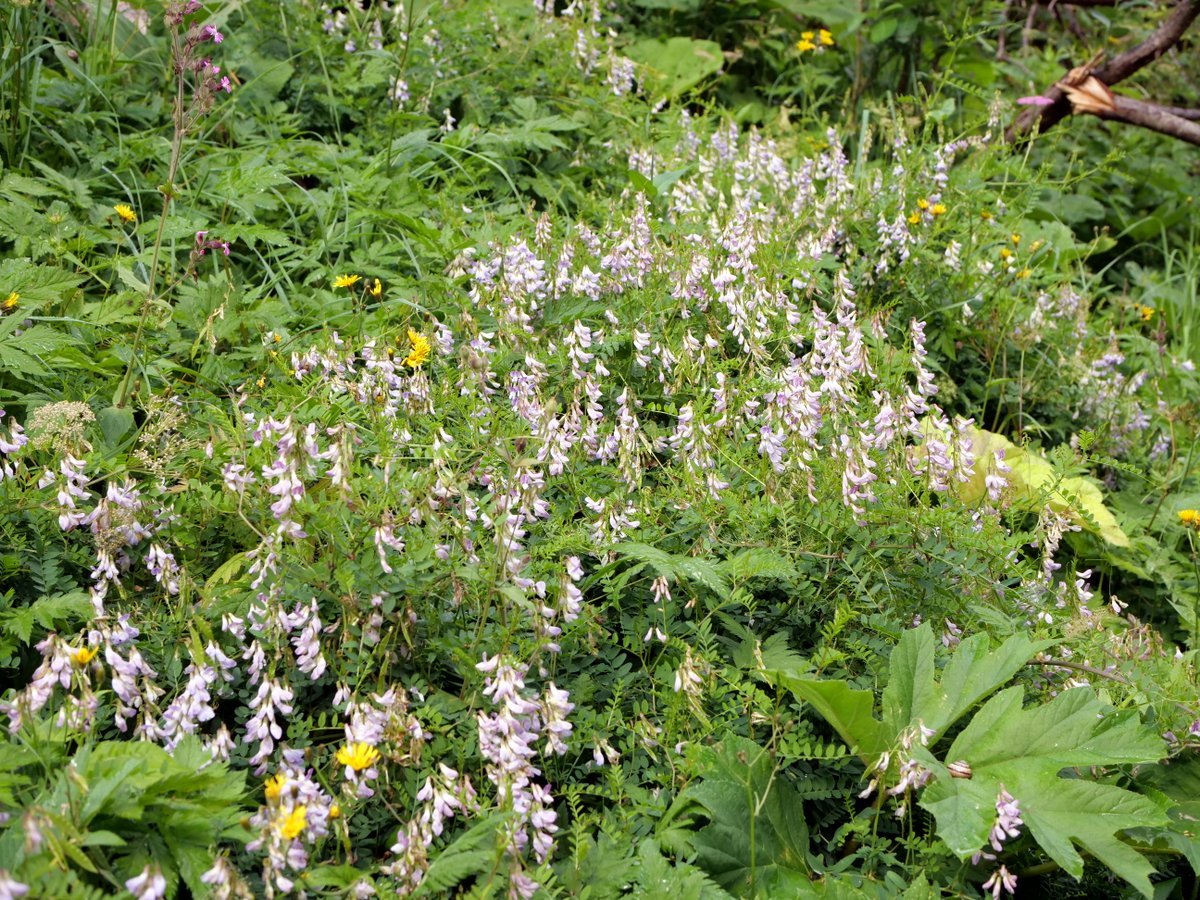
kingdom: Plantae
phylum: Tracheophyta
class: Magnoliopsida
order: Fabales
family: Fabaceae
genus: Vicia
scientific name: Vicia sylvatica
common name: Wood vetch
